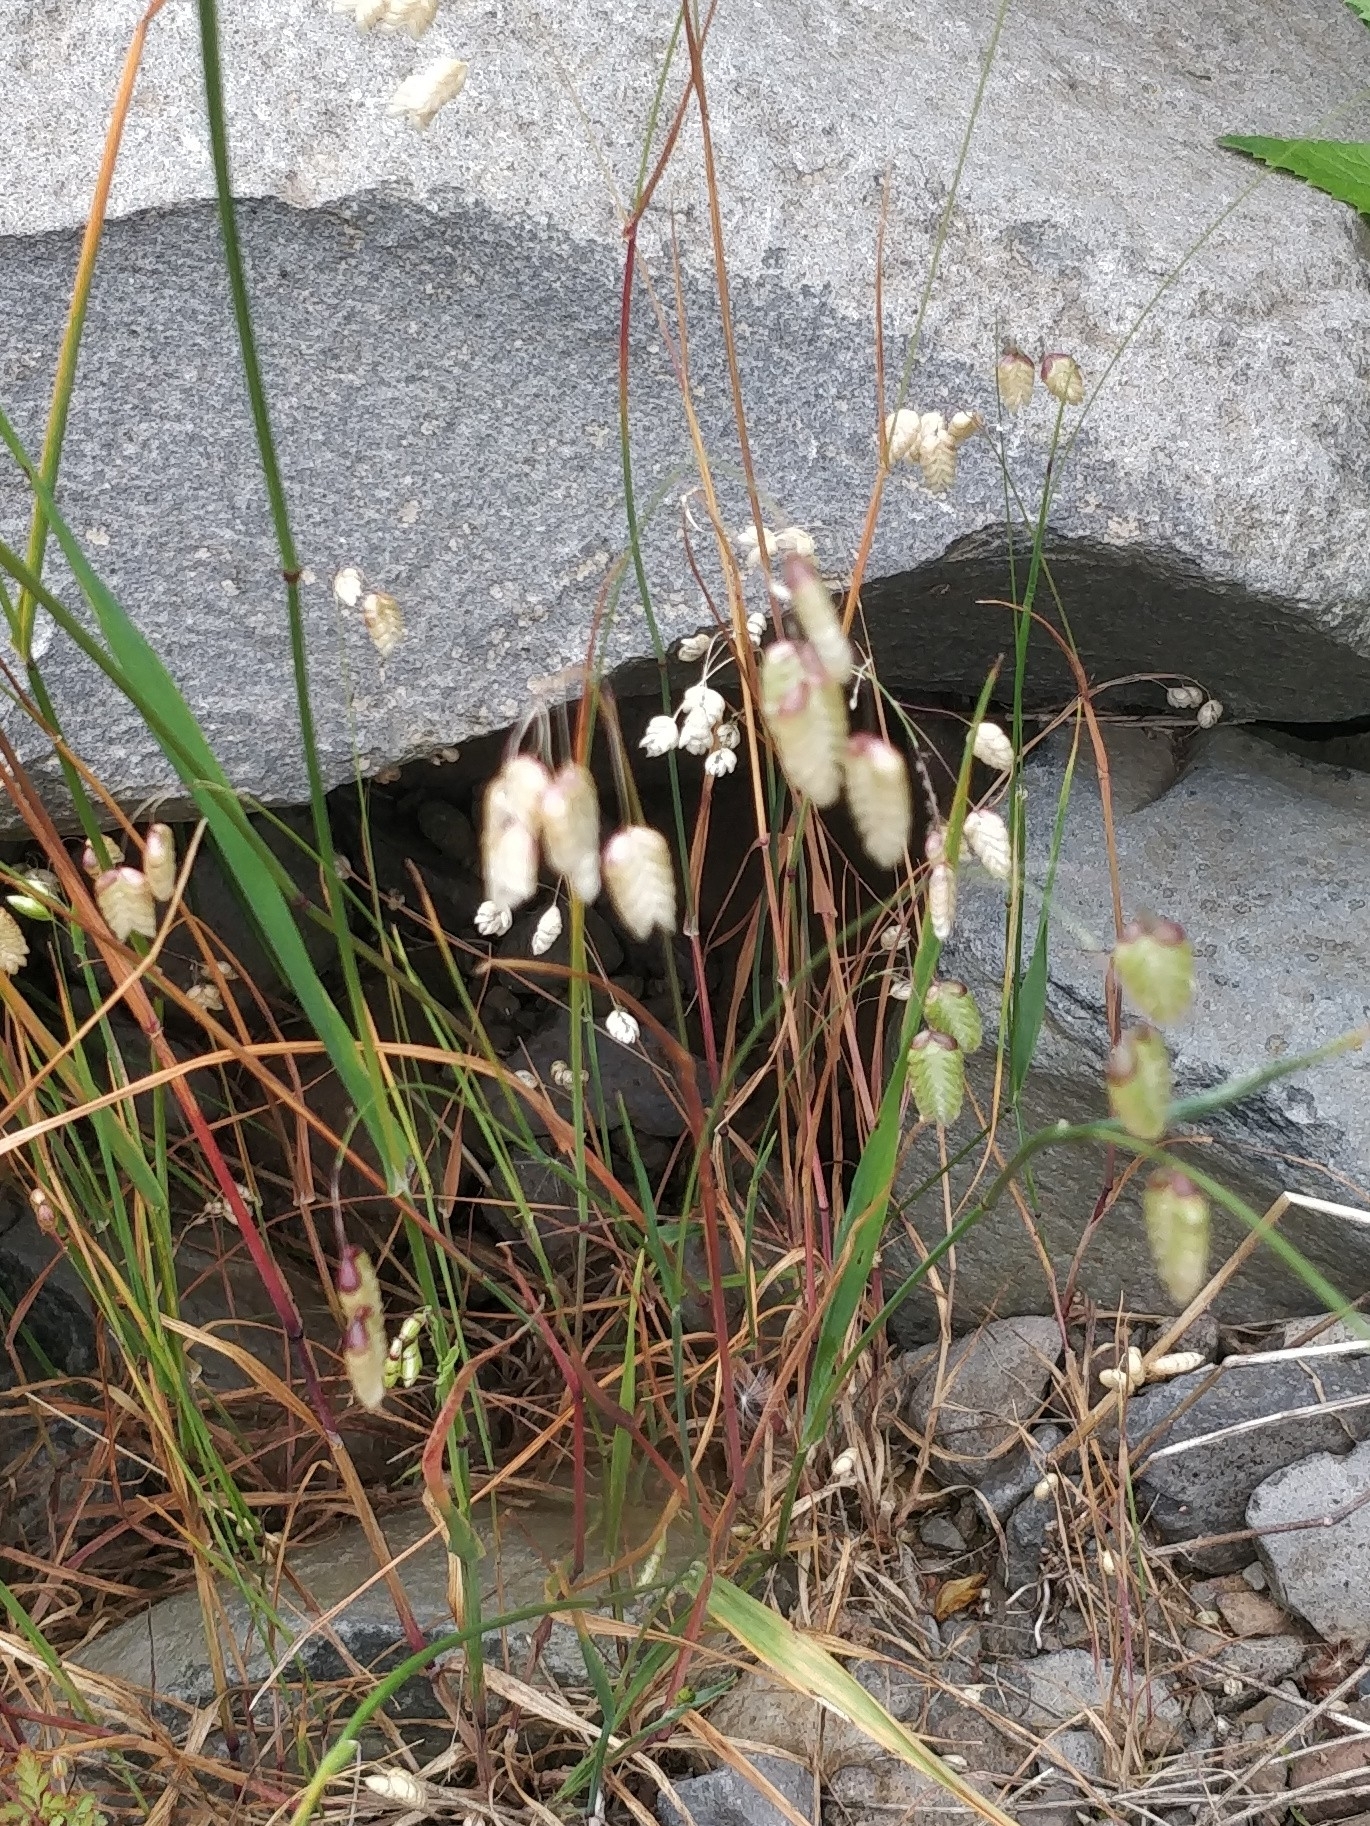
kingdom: Plantae
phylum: Tracheophyta
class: Liliopsida
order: Poales
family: Poaceae
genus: Briza
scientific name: Briza maxima
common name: Big quakinggrass
